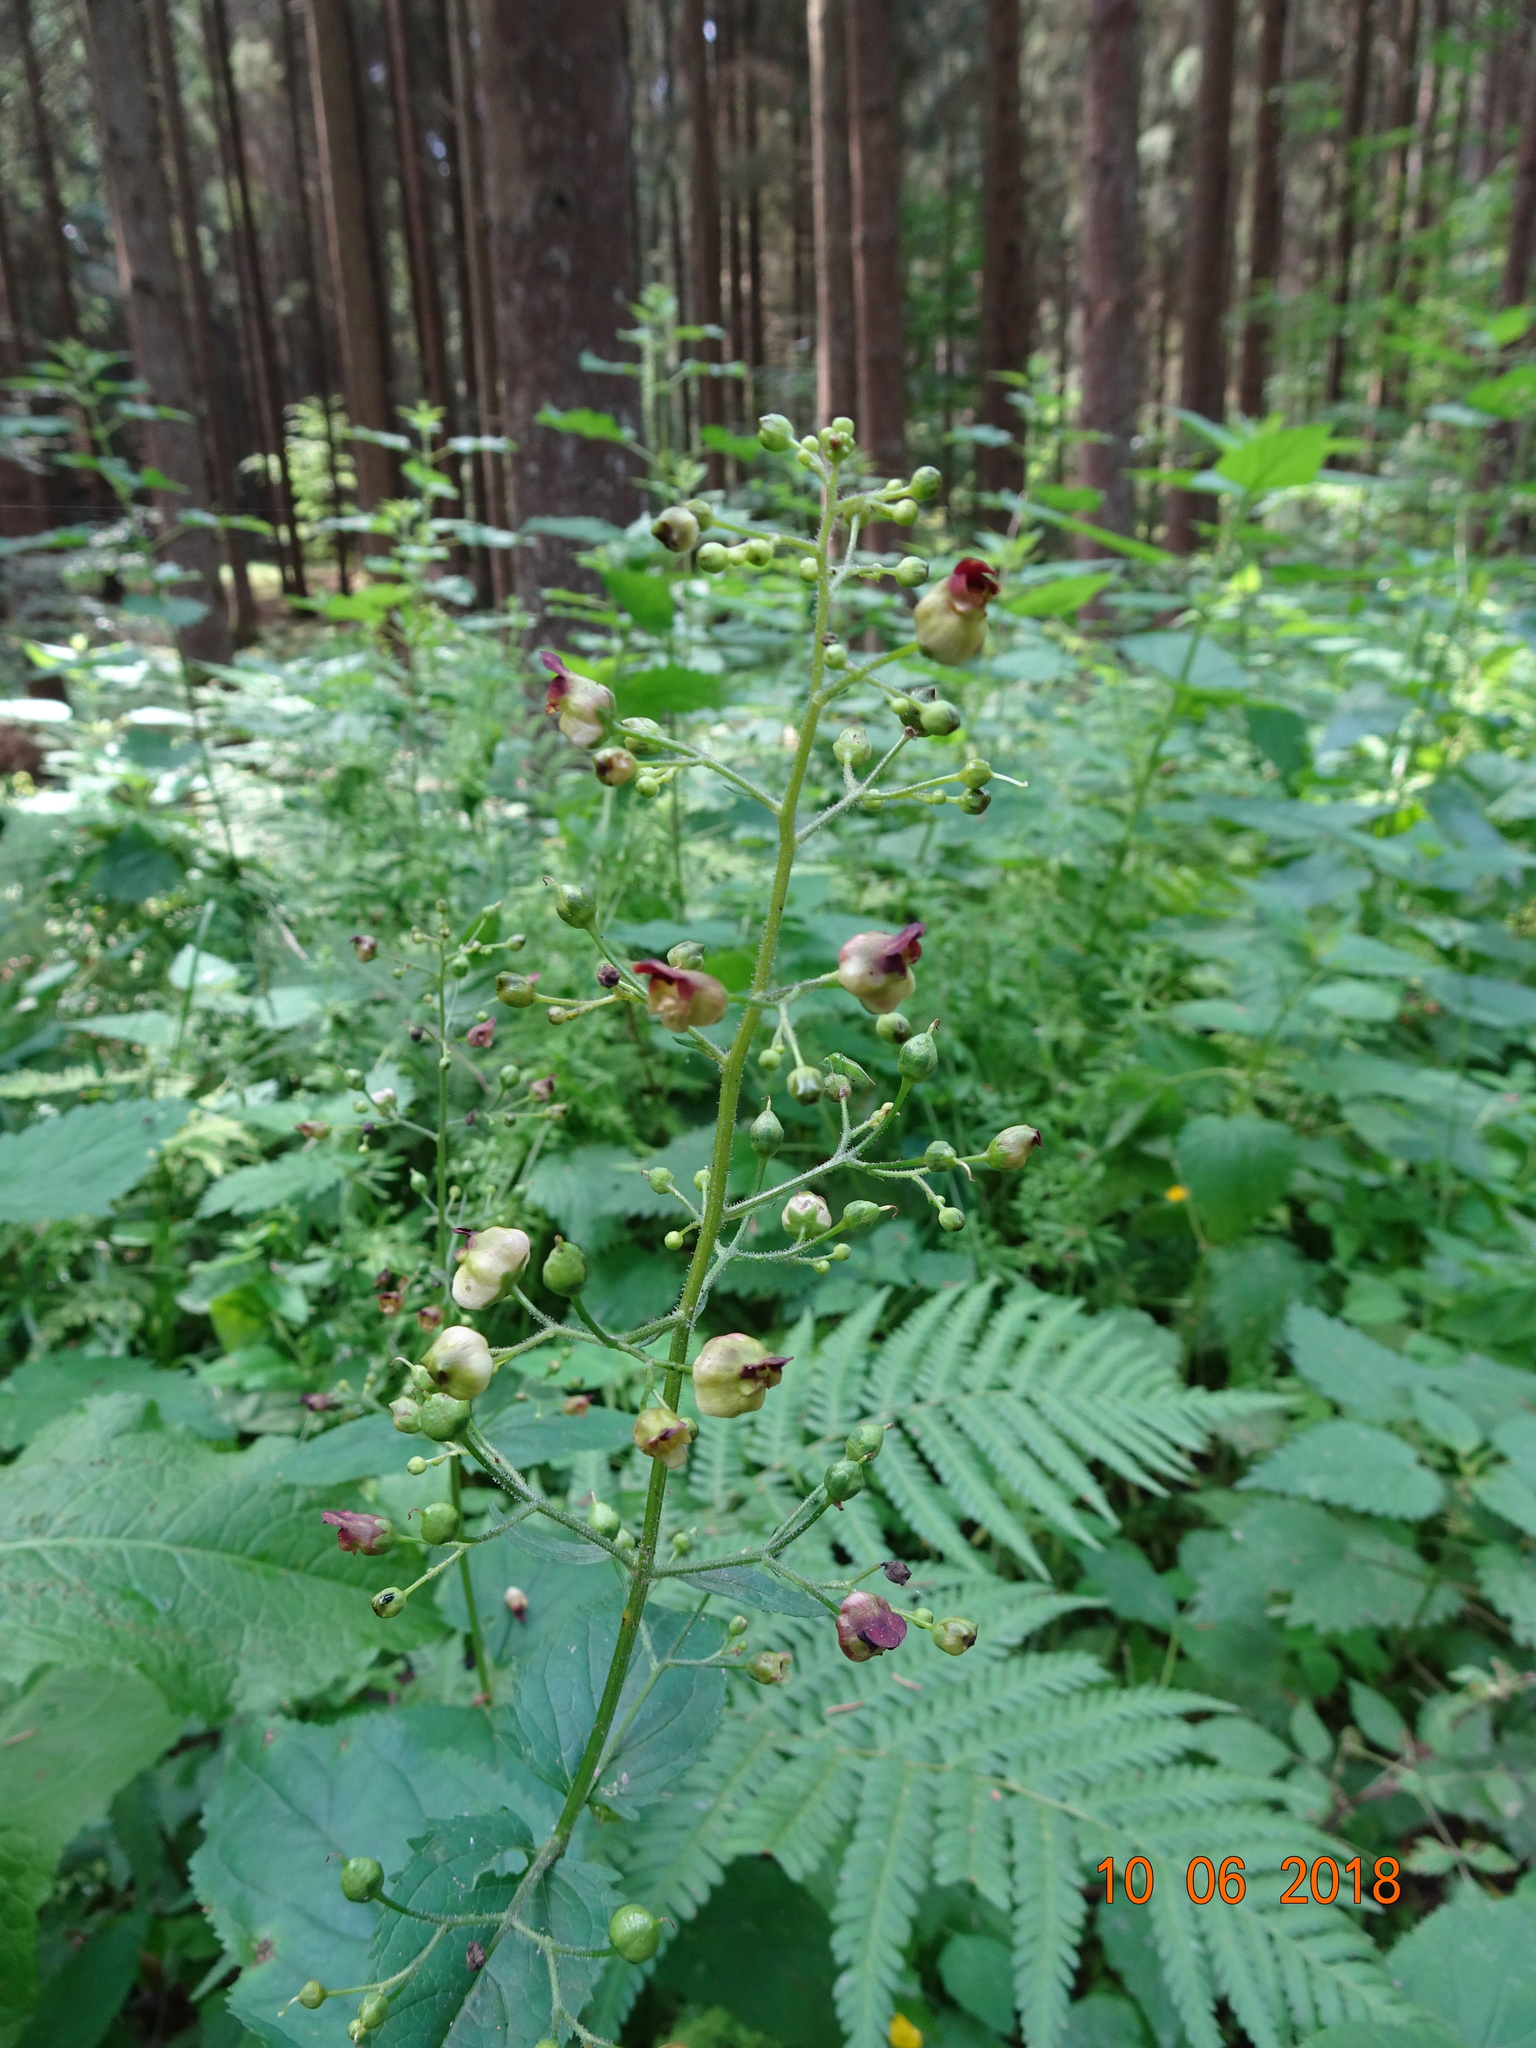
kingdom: Plantae
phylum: Tracheophyta
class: Magnoliopsida
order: Lamiales
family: Scrophulariaceae
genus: Scrophularia
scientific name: Scrophularia nodosa
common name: Common figwort
